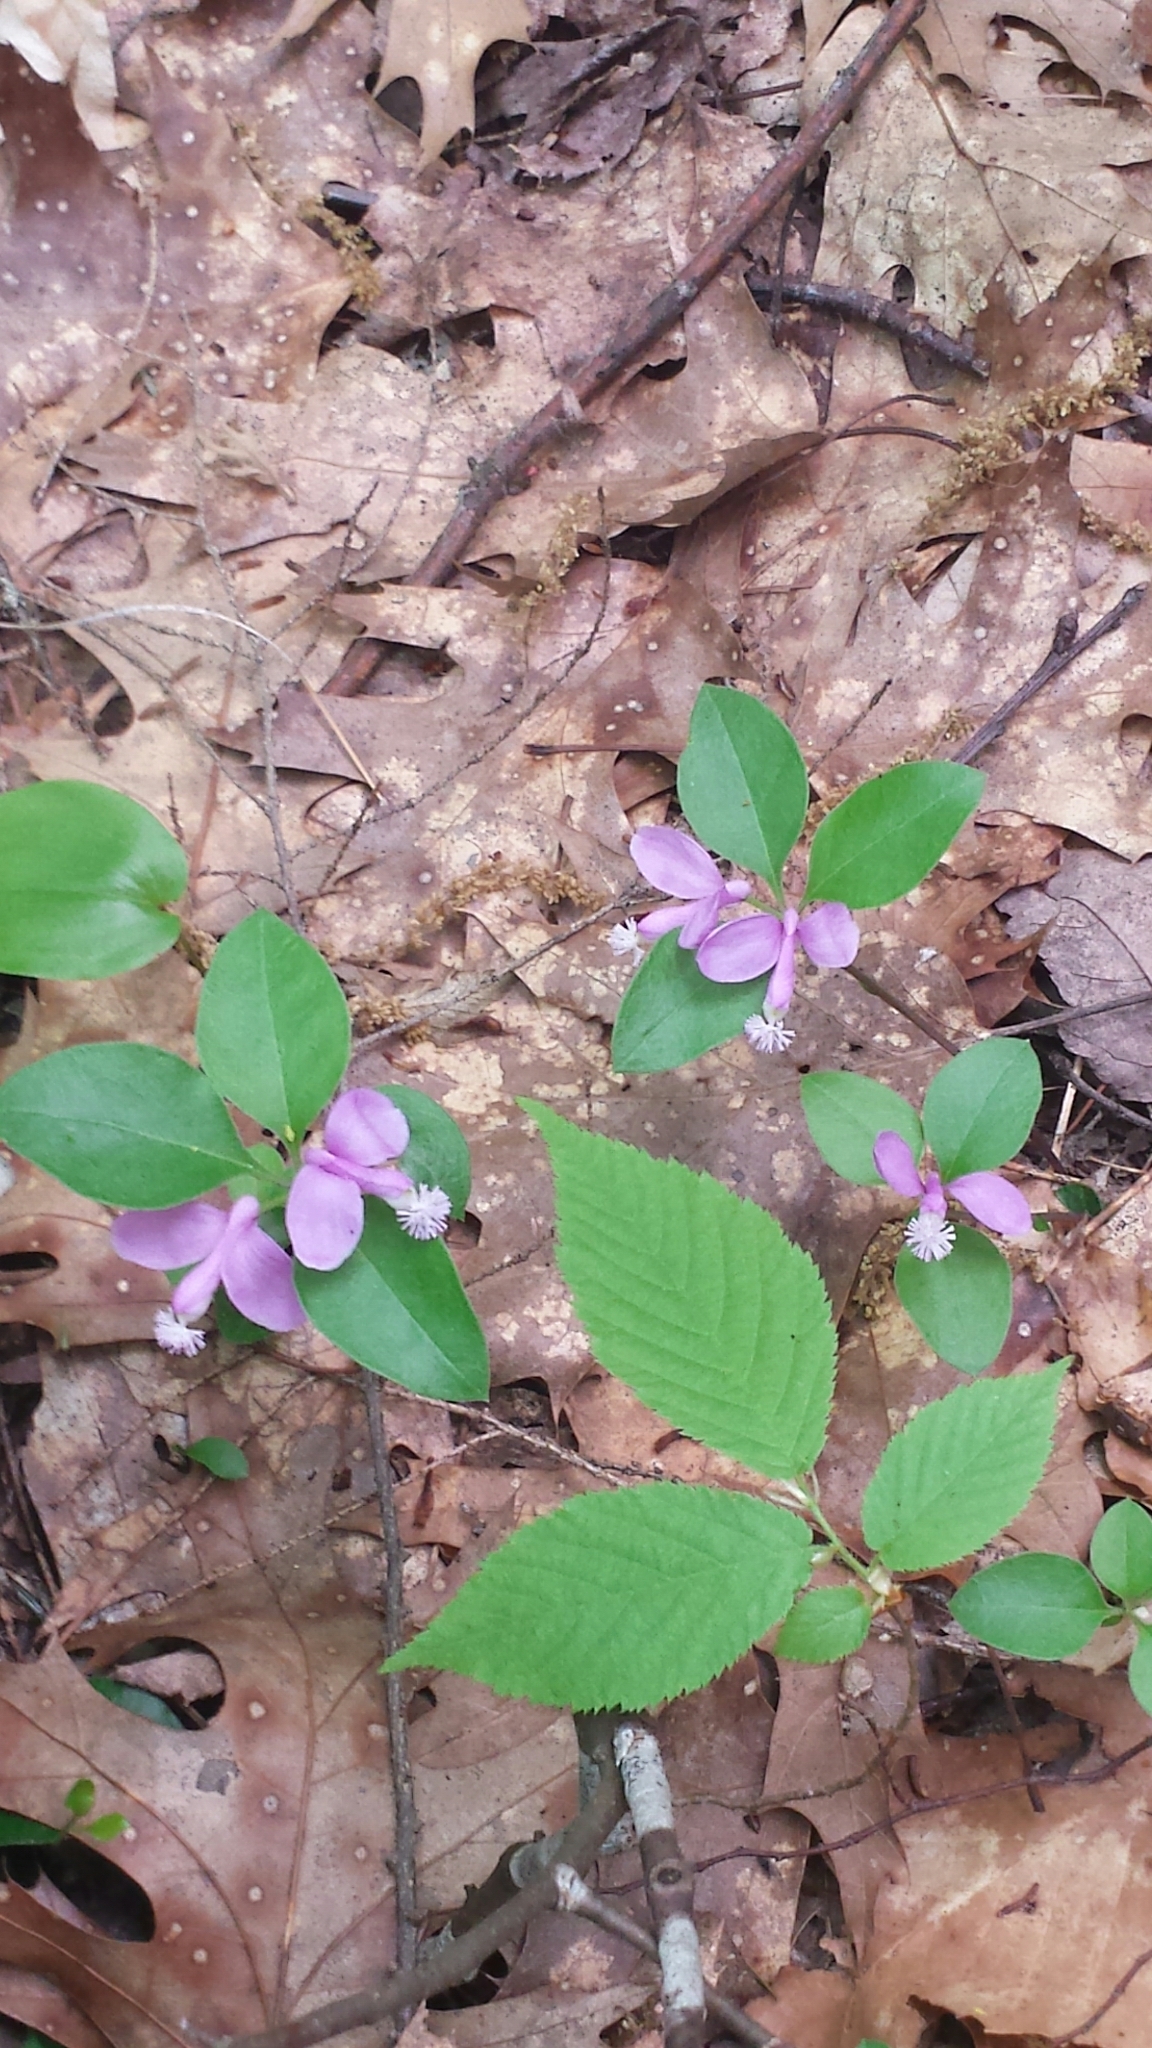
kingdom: Plantae
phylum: Tracheophyta
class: Magnoliopsida
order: Fabales
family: Polygalaceae
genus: Polygaloides
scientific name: Polygaloides paucifolia
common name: Bird-on-the-wing
